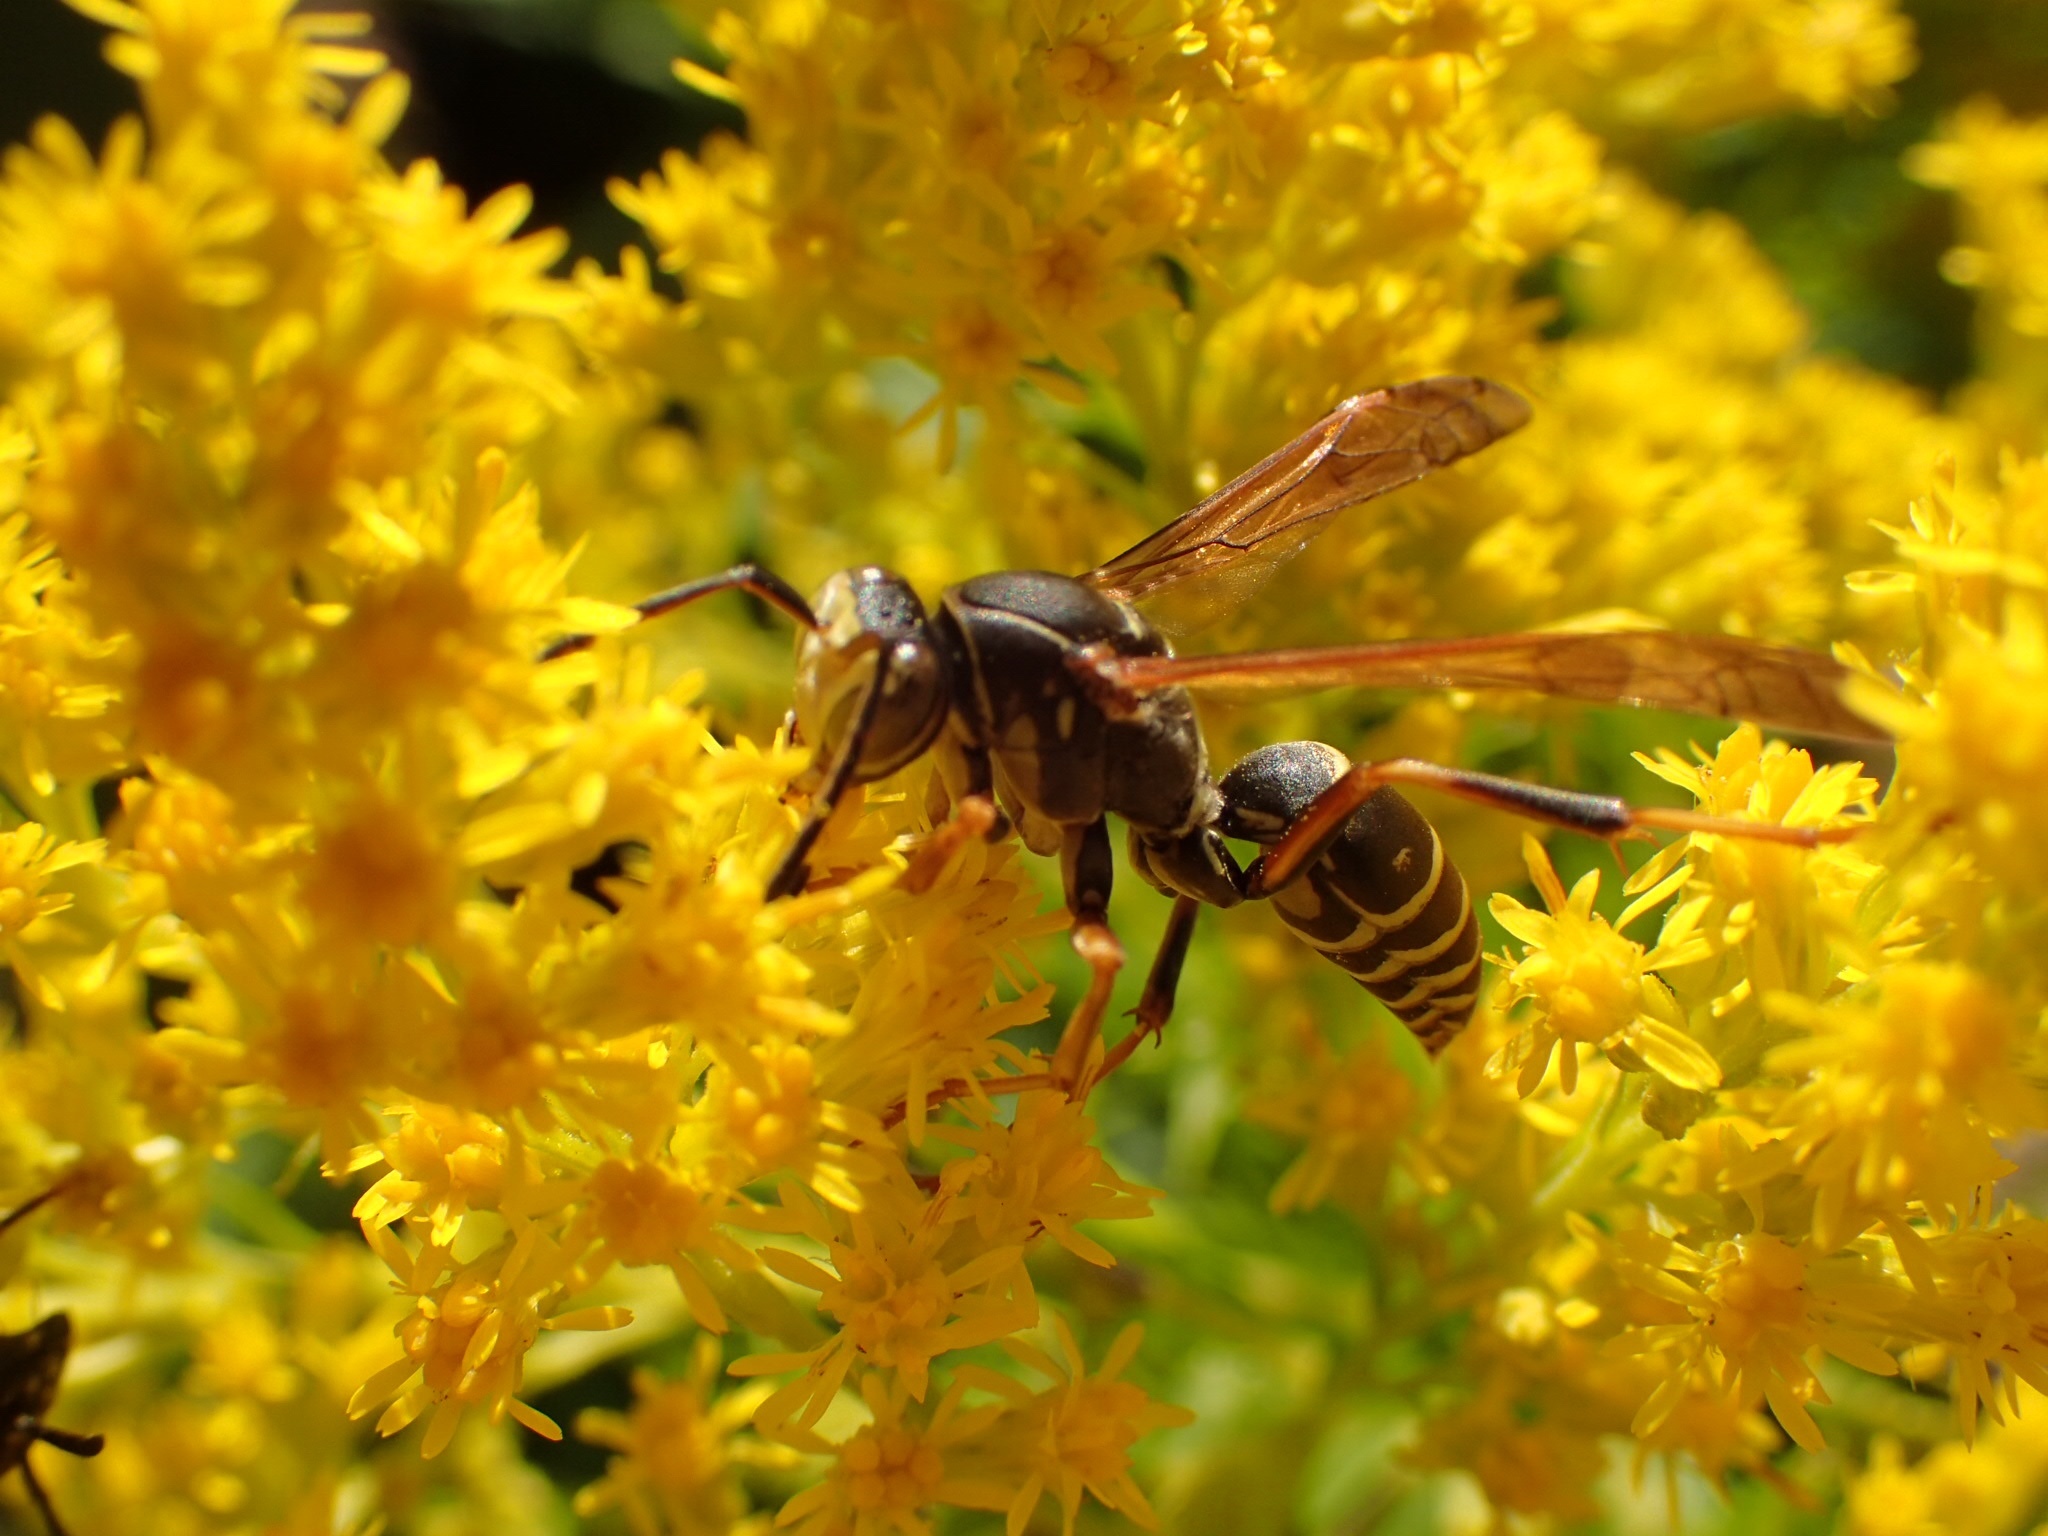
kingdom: Animalia
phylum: Arthropoda
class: Insecta
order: Hymenoptera
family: Eumenidae
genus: Polistes
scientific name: Polistes fuscatus
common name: Dark paper wasp
